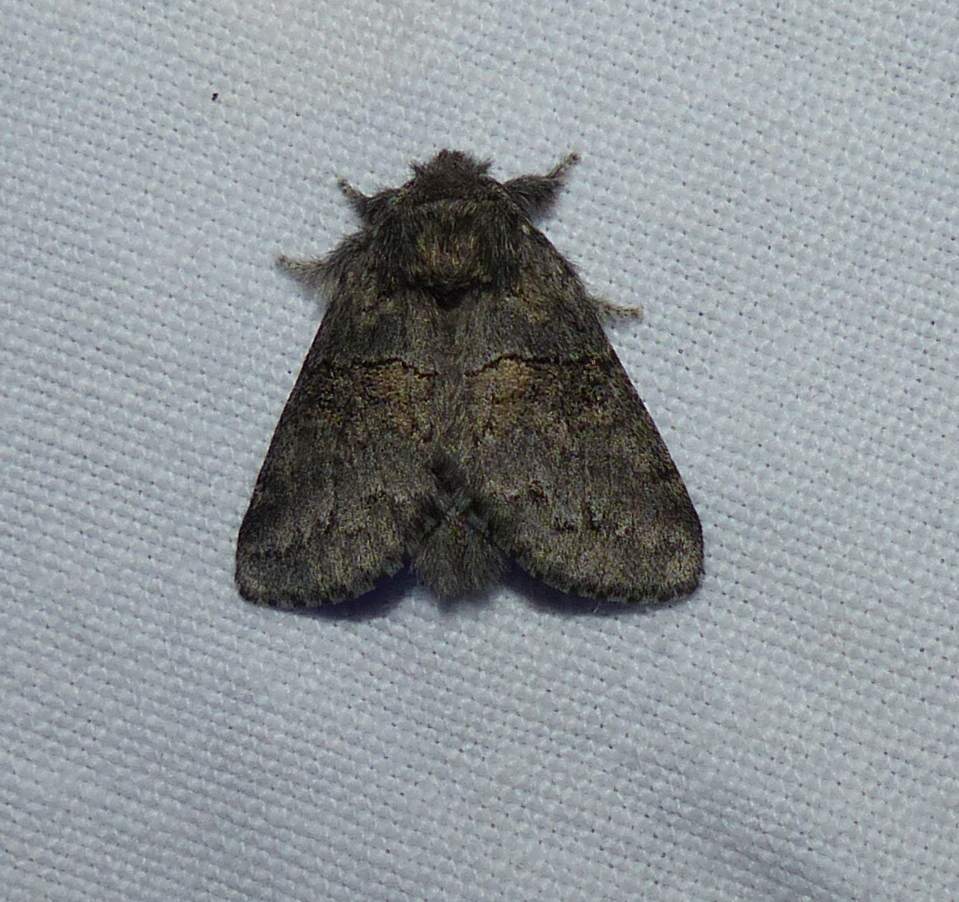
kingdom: Animalia
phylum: Arthropoda
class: Insecta
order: Lepidoptera
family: Notodontidae
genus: Gluphisia
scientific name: Gluphisia septentrionis
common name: Common gluphisia
